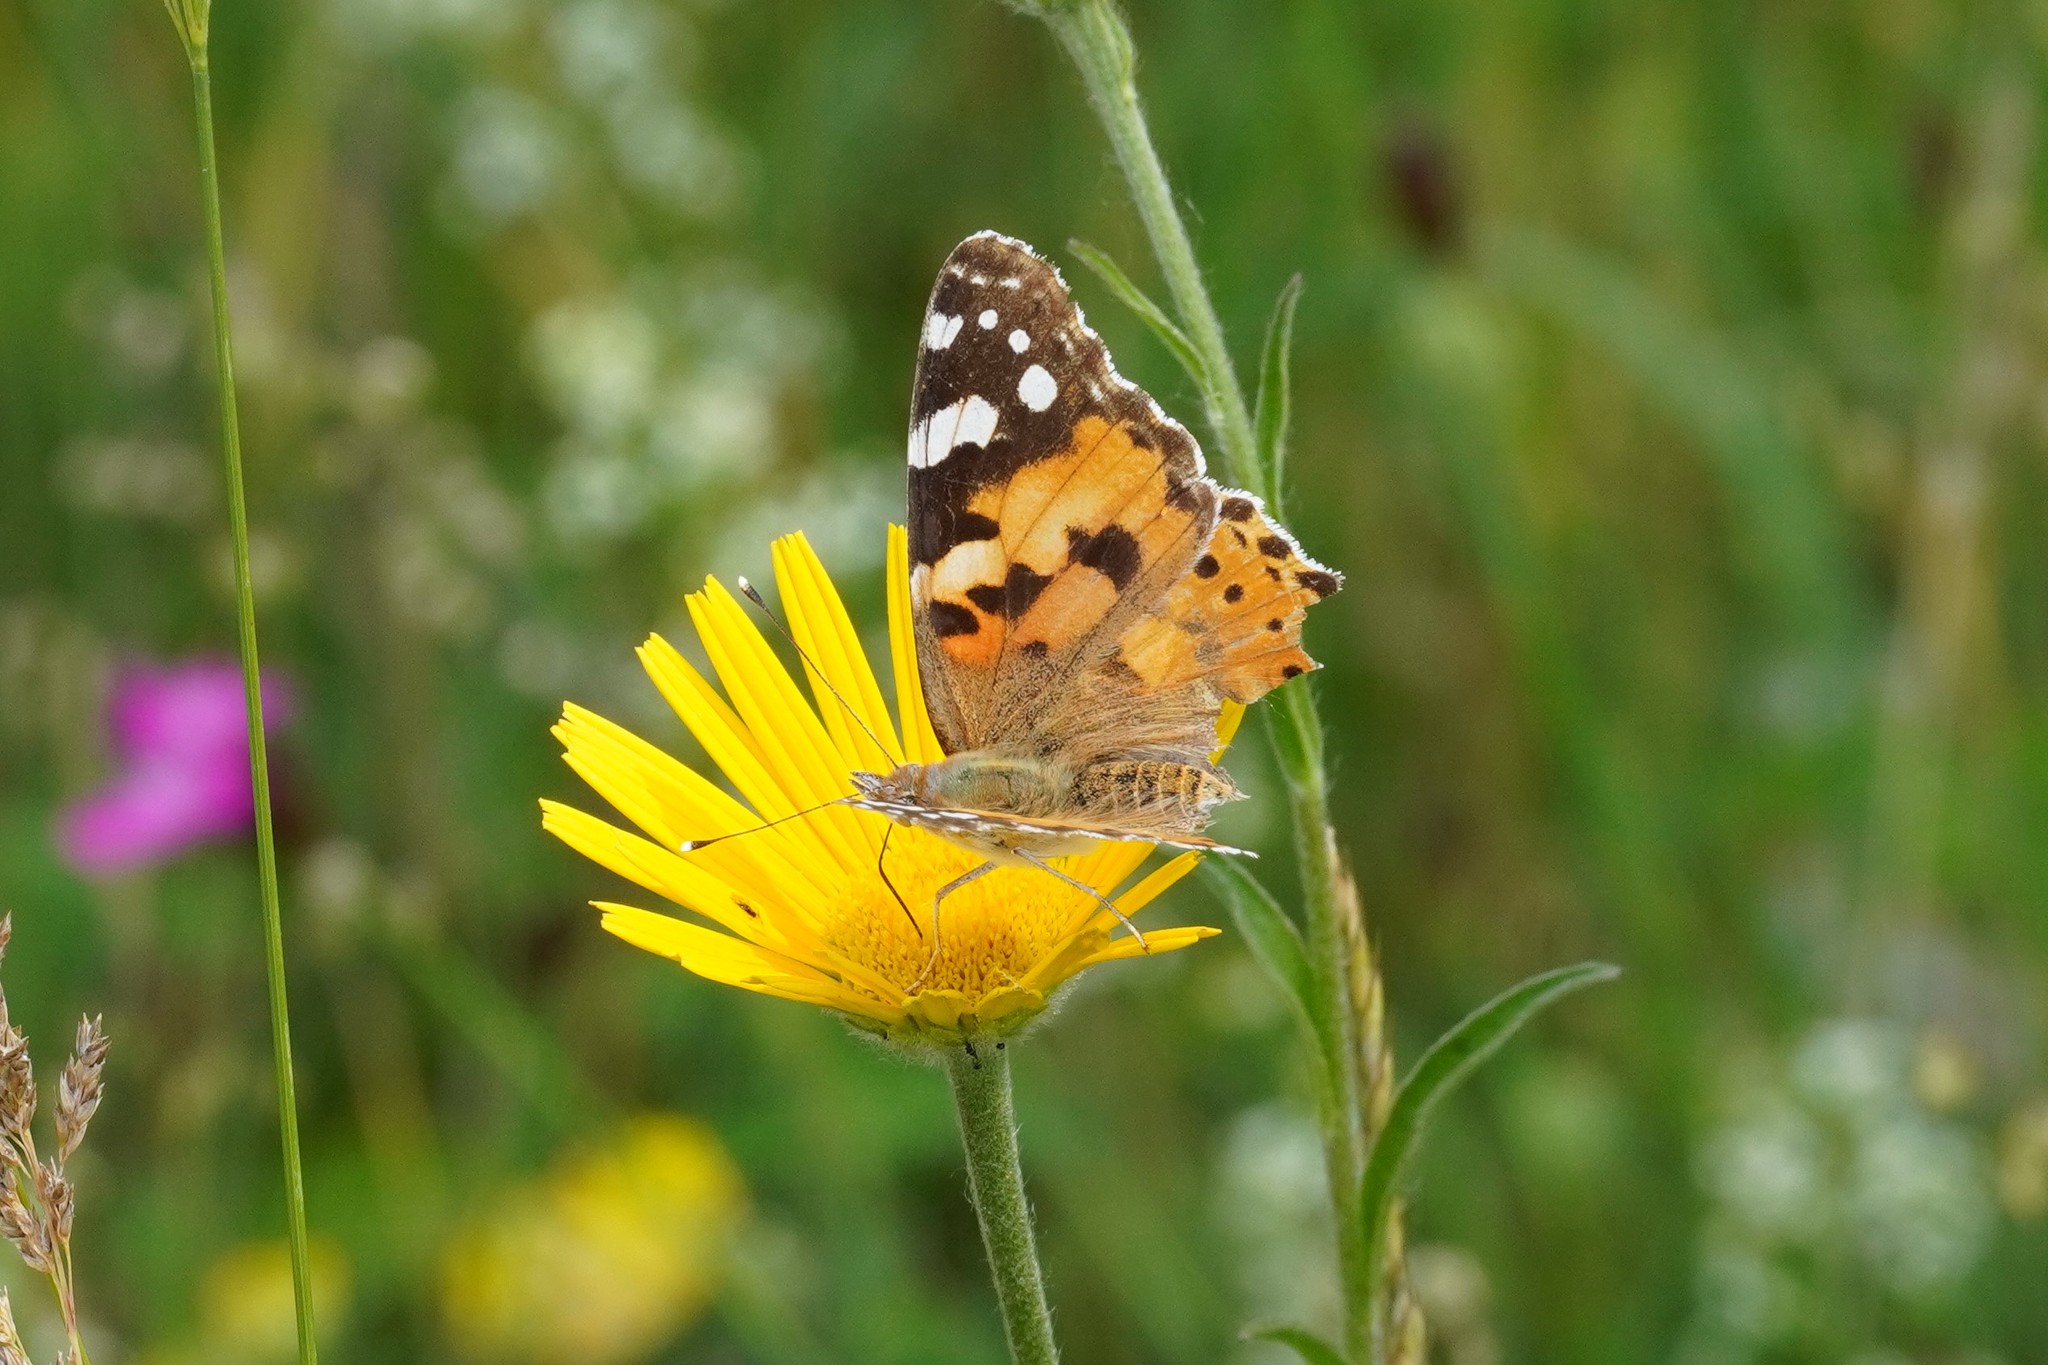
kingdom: Animalia
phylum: Arthropoda
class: Insecta
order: Lepidoptera
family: Nymphalidae
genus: Vanessa
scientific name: Vanessa cardui
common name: Painted lady
